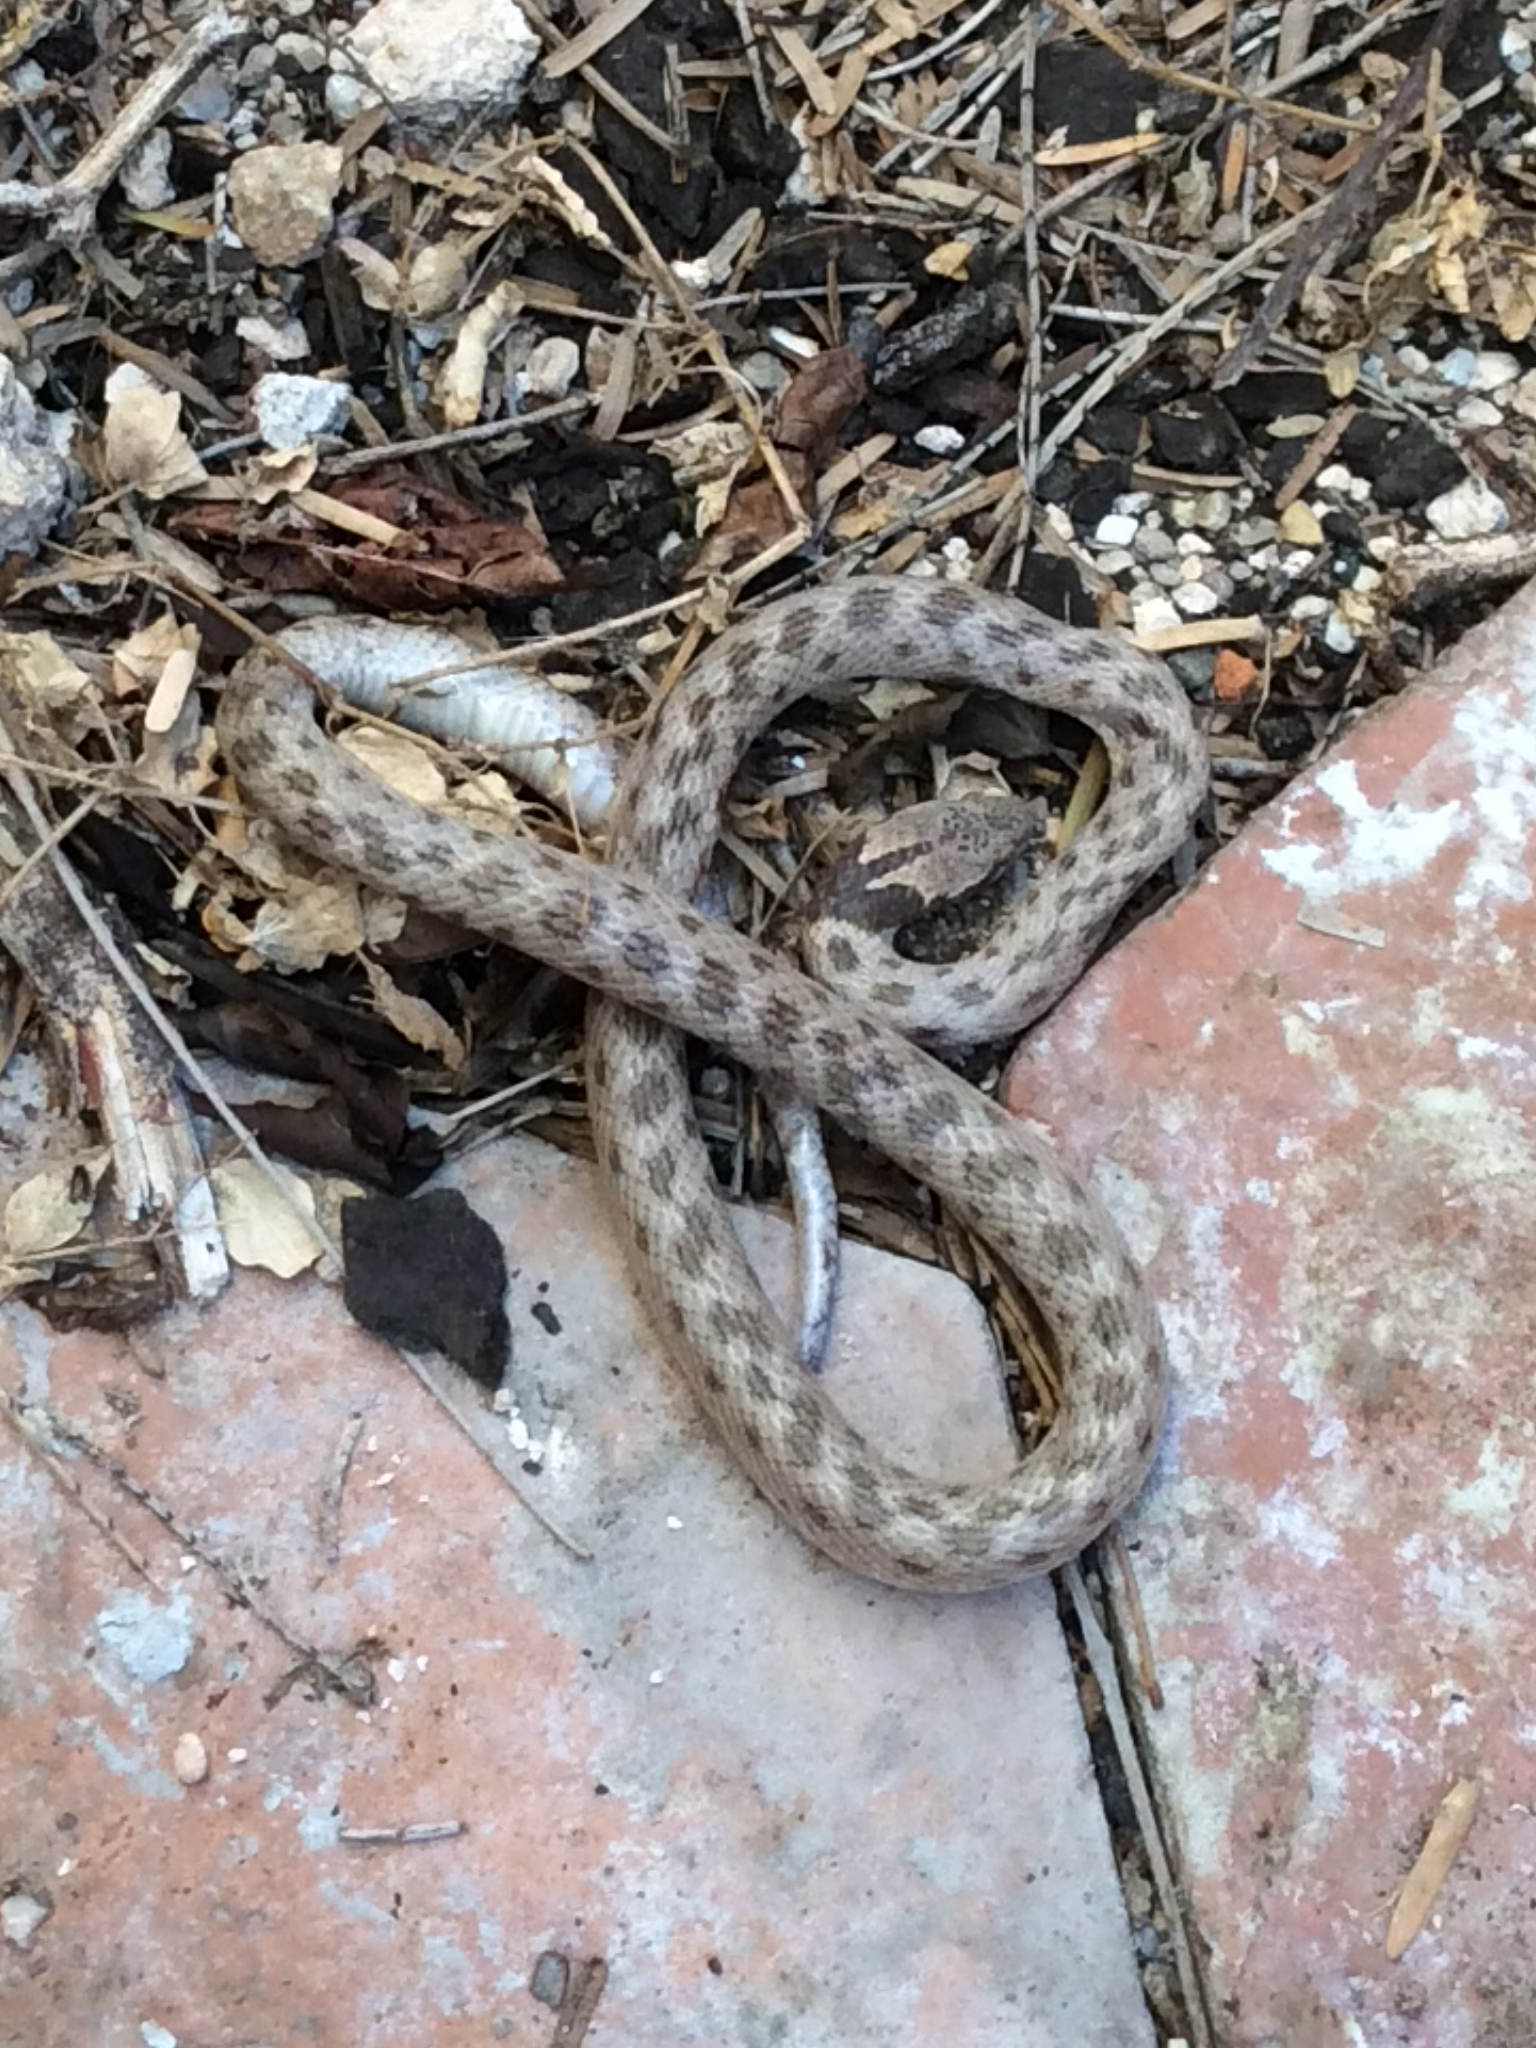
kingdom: Animalia
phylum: Chordata
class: Squamata
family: Colubridae
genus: Hypsiglena
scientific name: Hypsiglena chlorophaea
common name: Desert nightsnake
